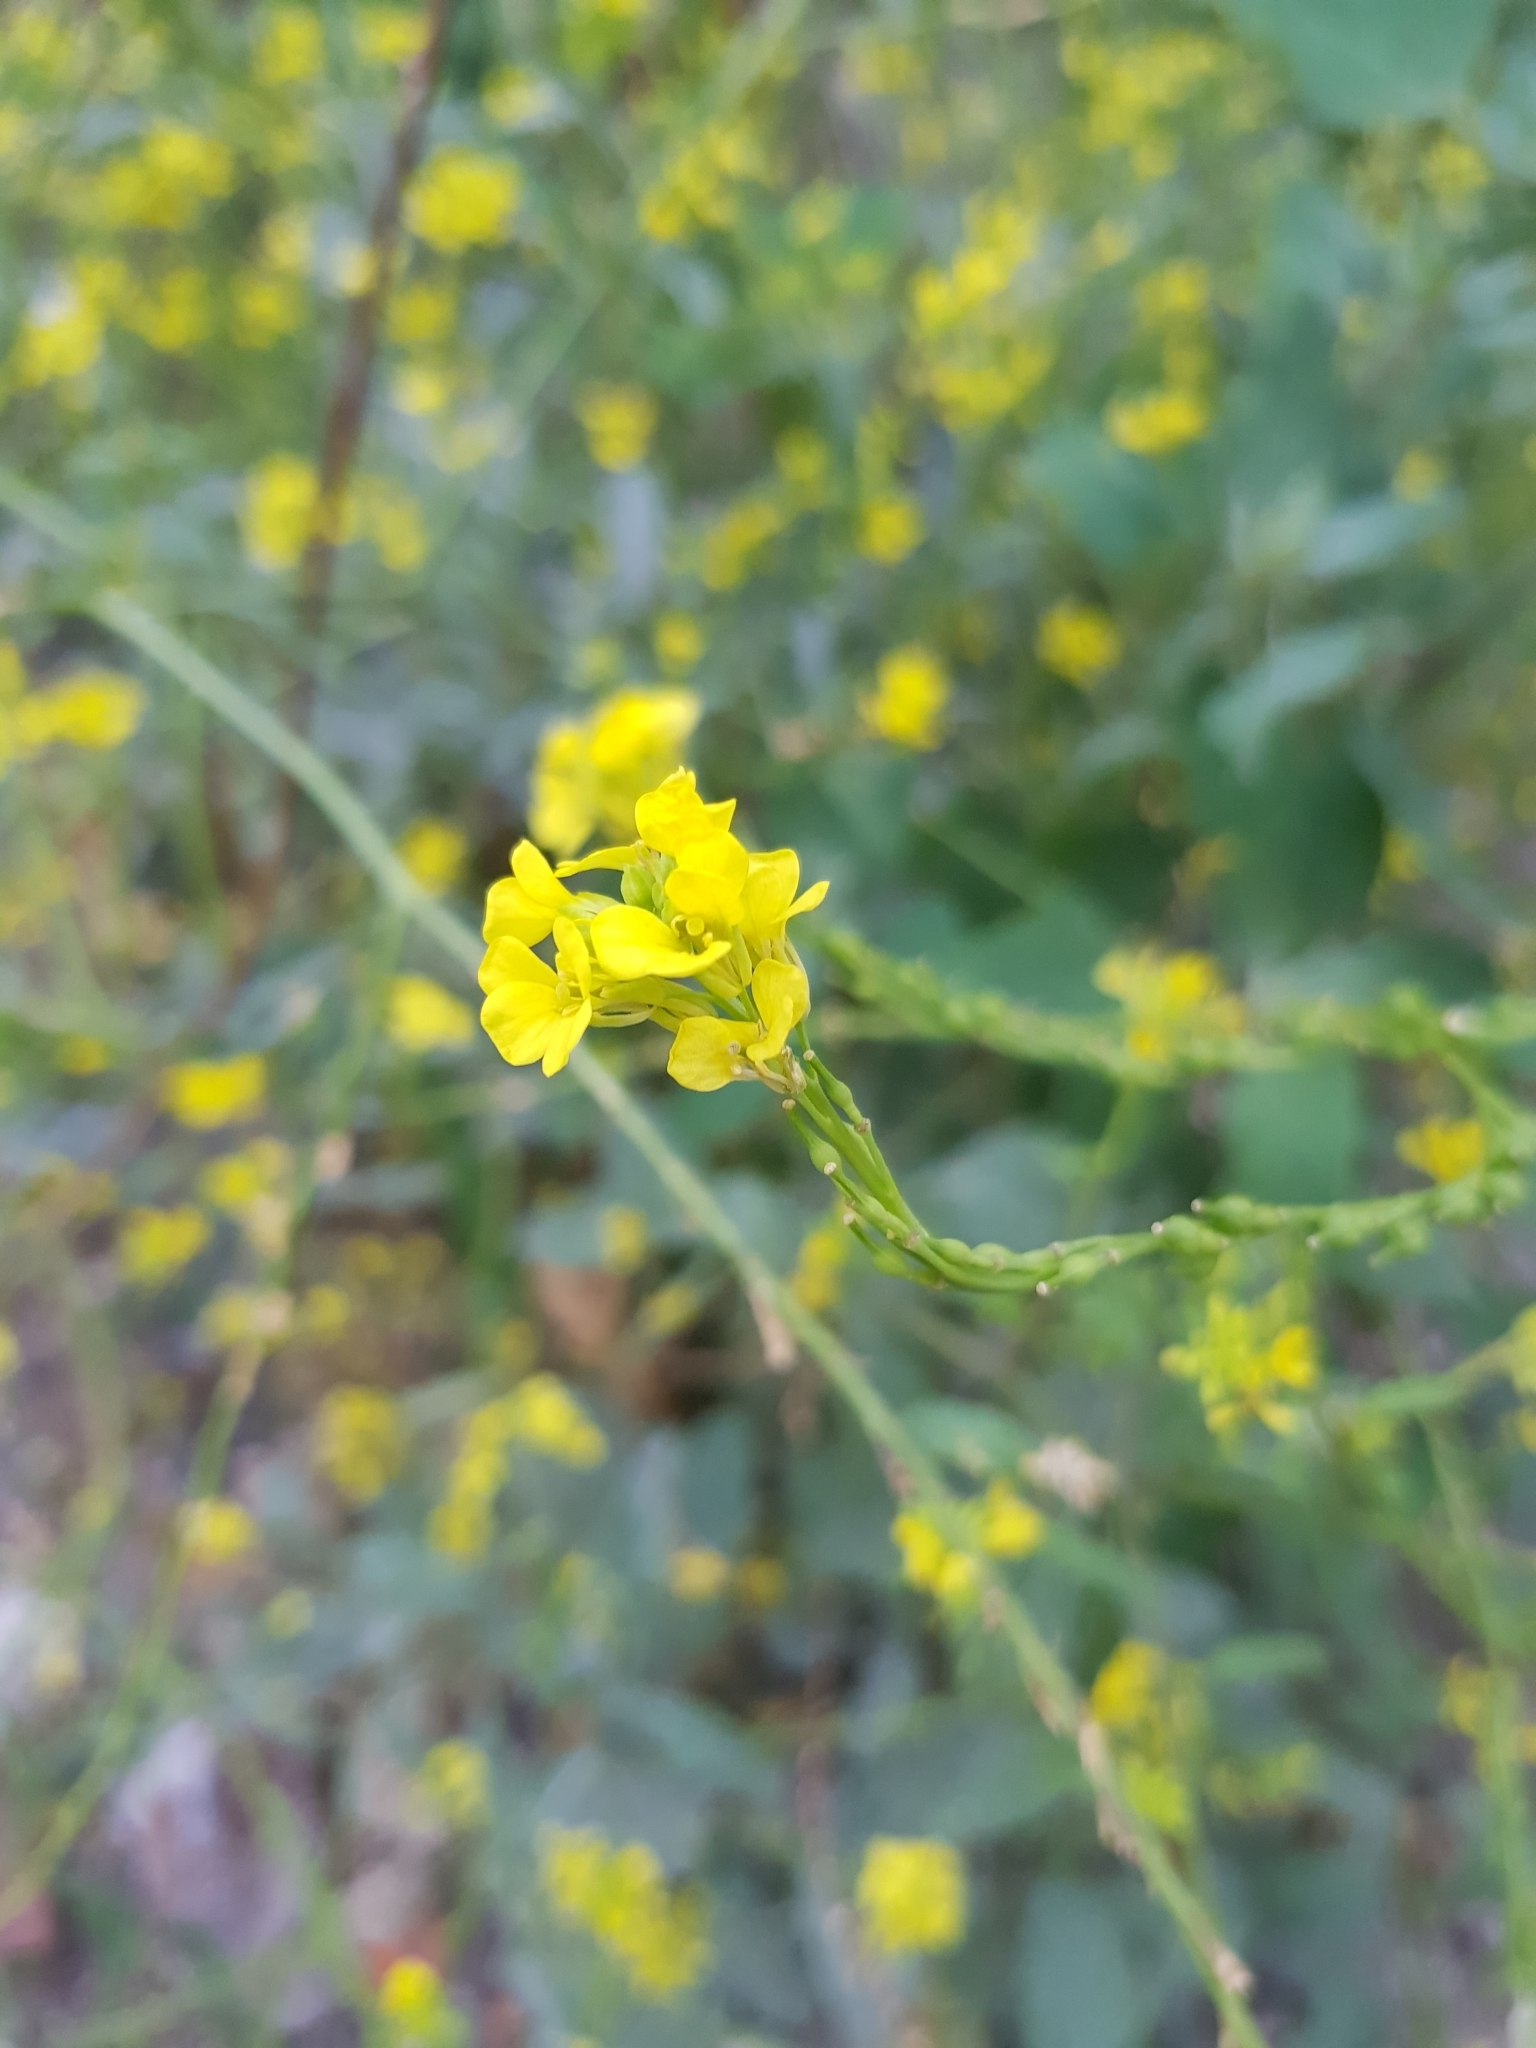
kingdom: Plantae
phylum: Tracheophyta
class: Magnoliopsida
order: Brassicales
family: Brassicaceae
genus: Rapistrum
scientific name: Rapistrum rugosum
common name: Annual bastardcabbage
